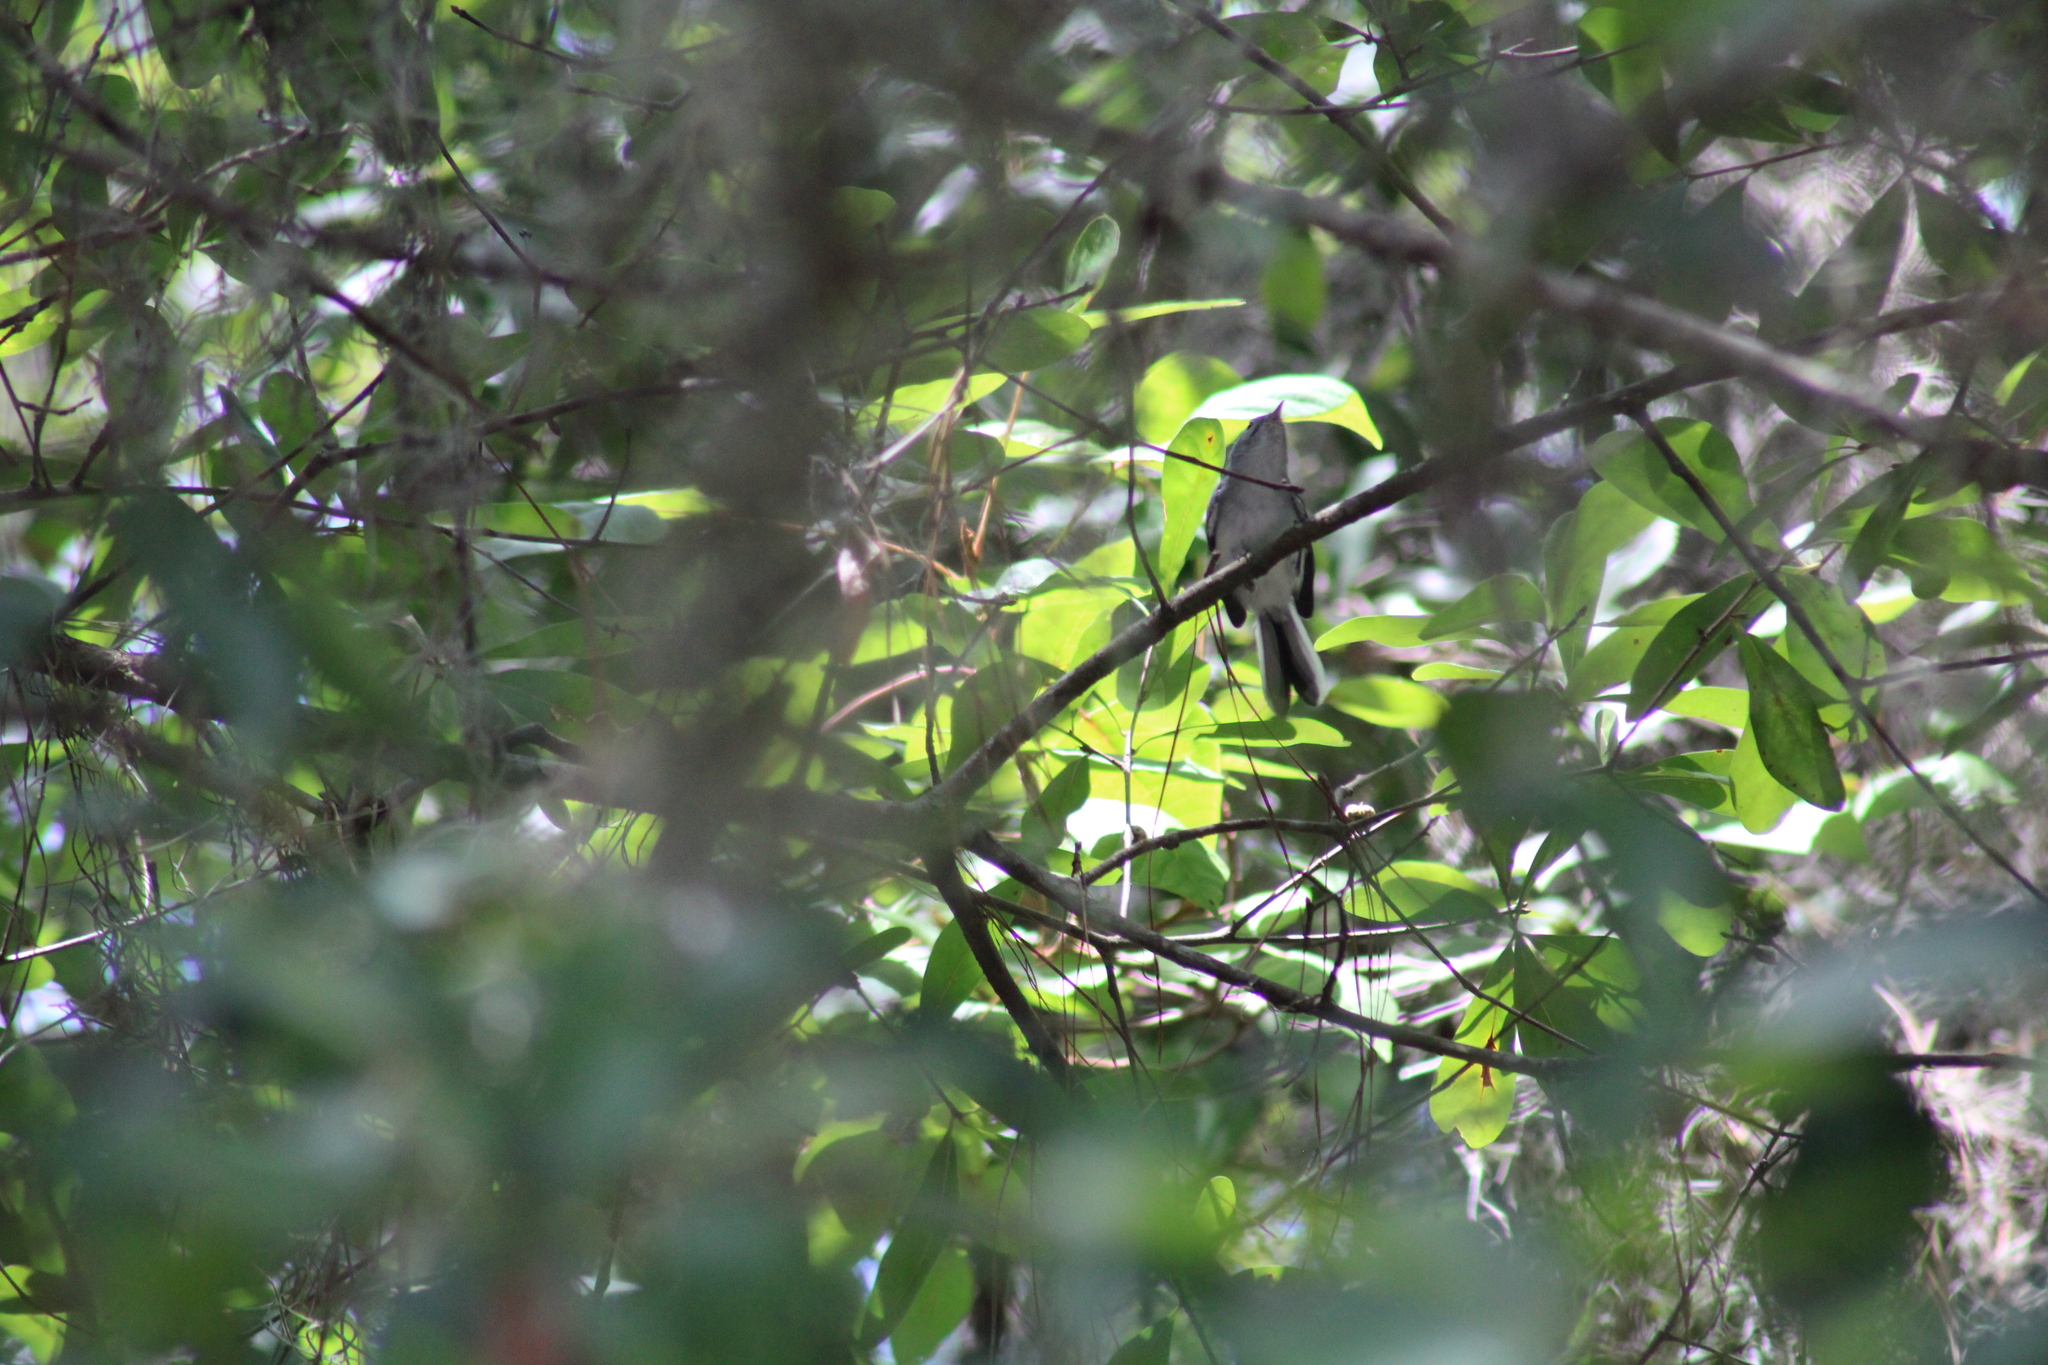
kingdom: Animalia
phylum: Chordata
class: Aves
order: Passeriformes
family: Polioptilidae
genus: Polioptila
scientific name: Polioptila caerulea
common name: Blue-gray gnatcatcher
